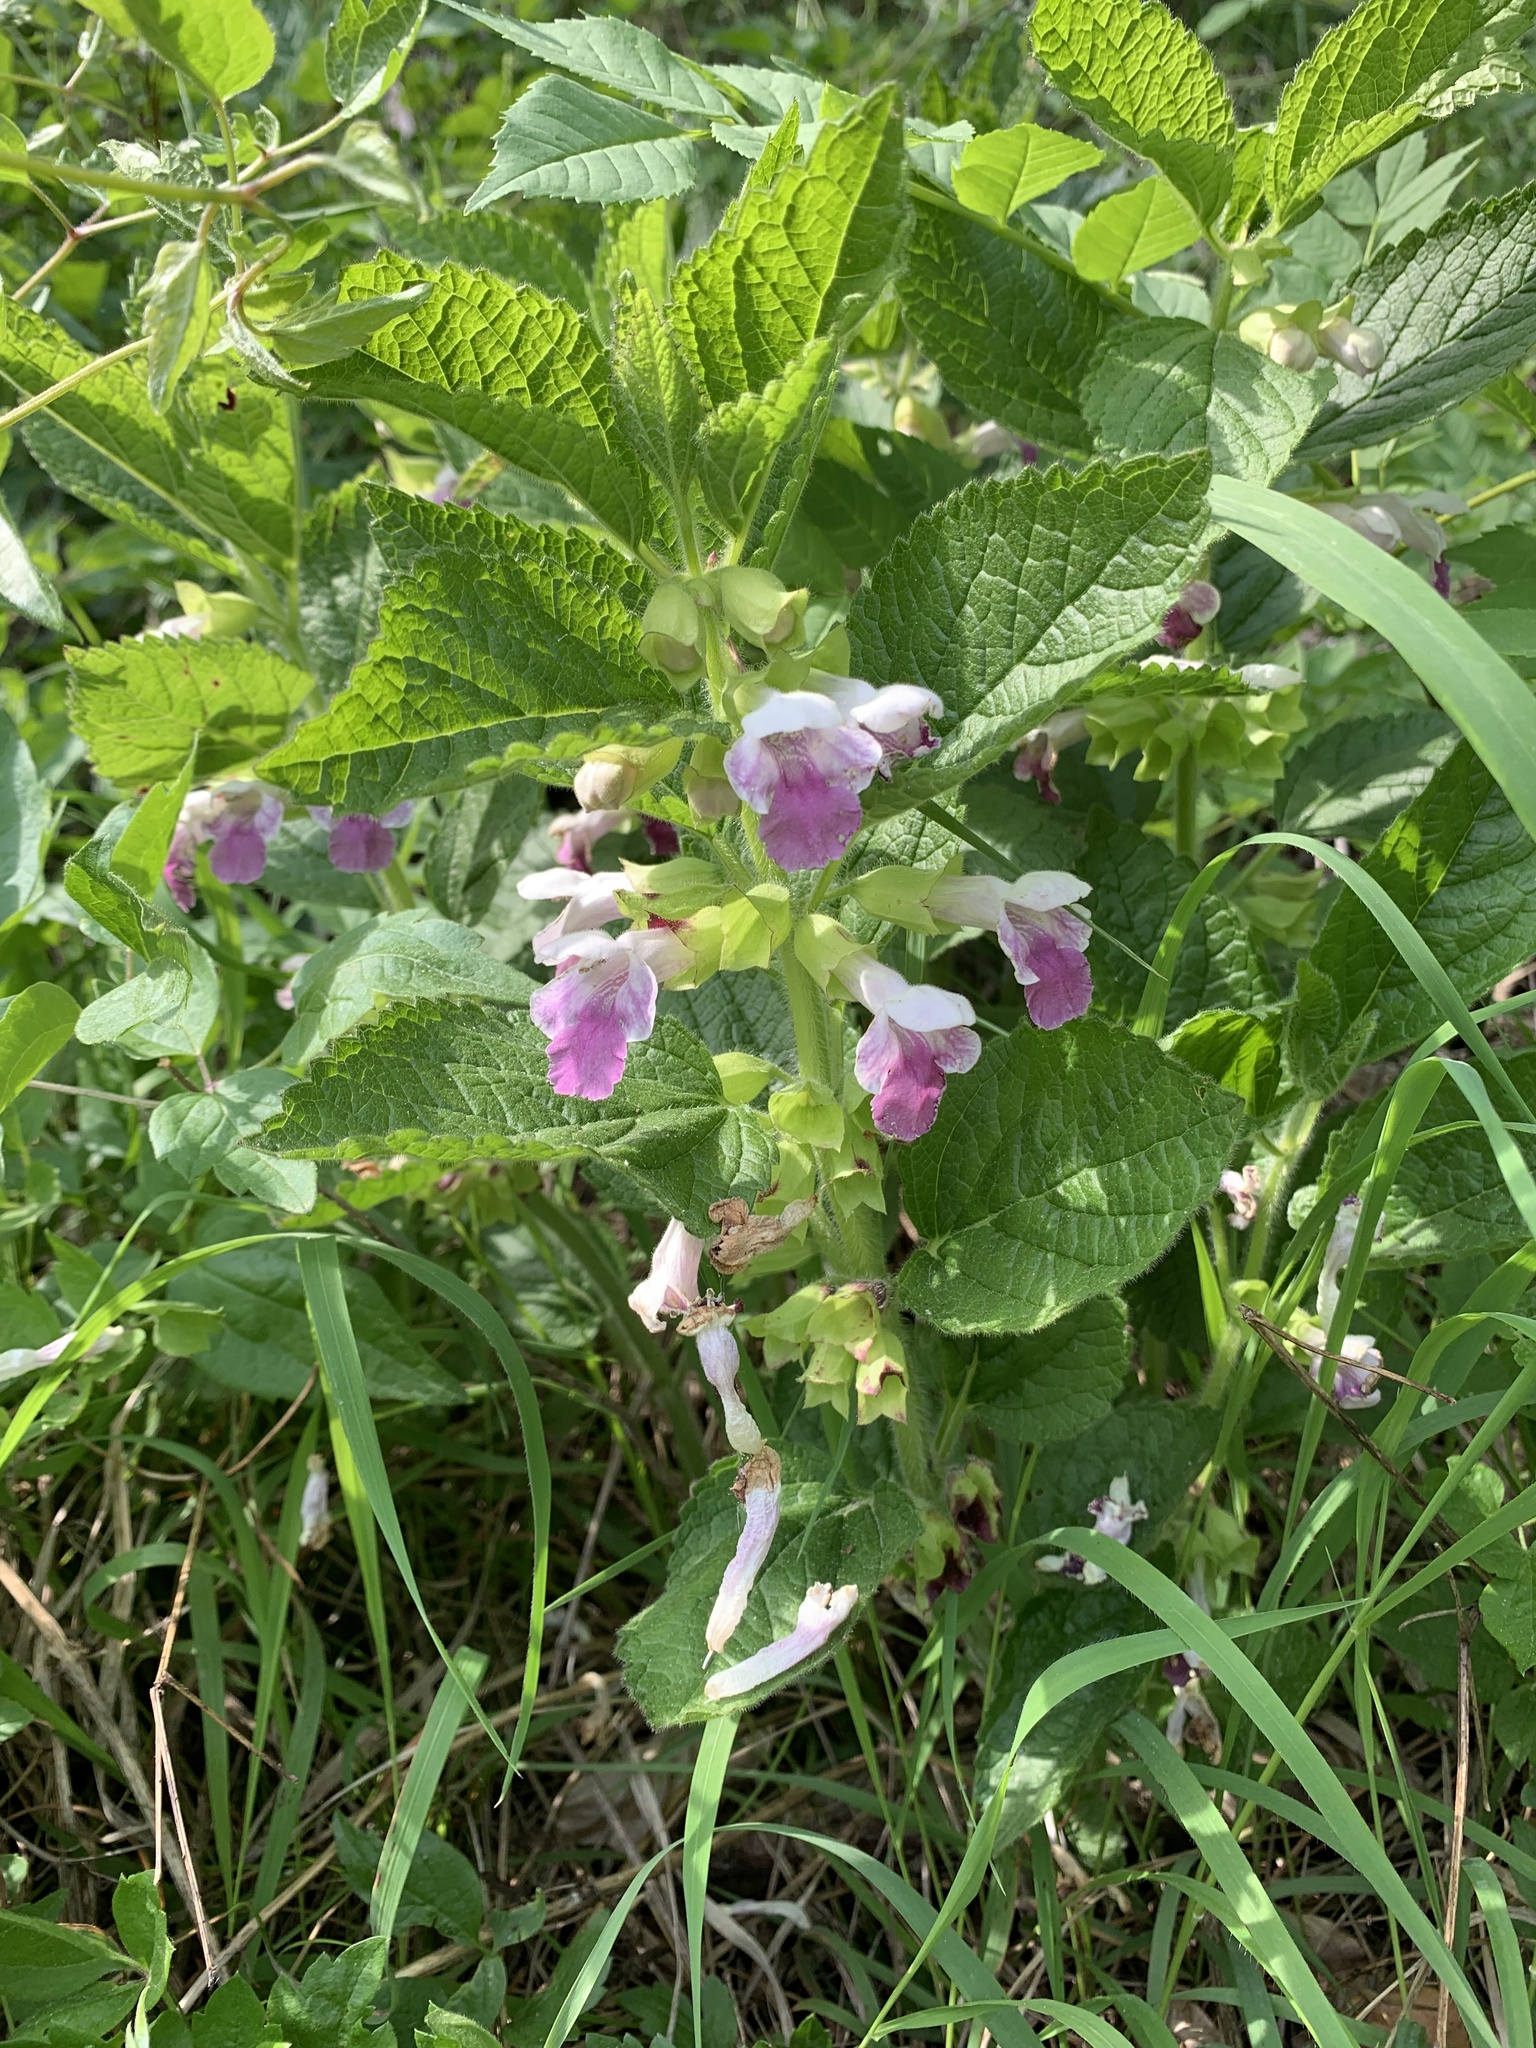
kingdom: Plantae
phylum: Tracheophyta
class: Magnoliopsida
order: Lamiales
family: Lamiaceae
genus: Melittis
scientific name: Melittis melissophyllum
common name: Bastard balm
